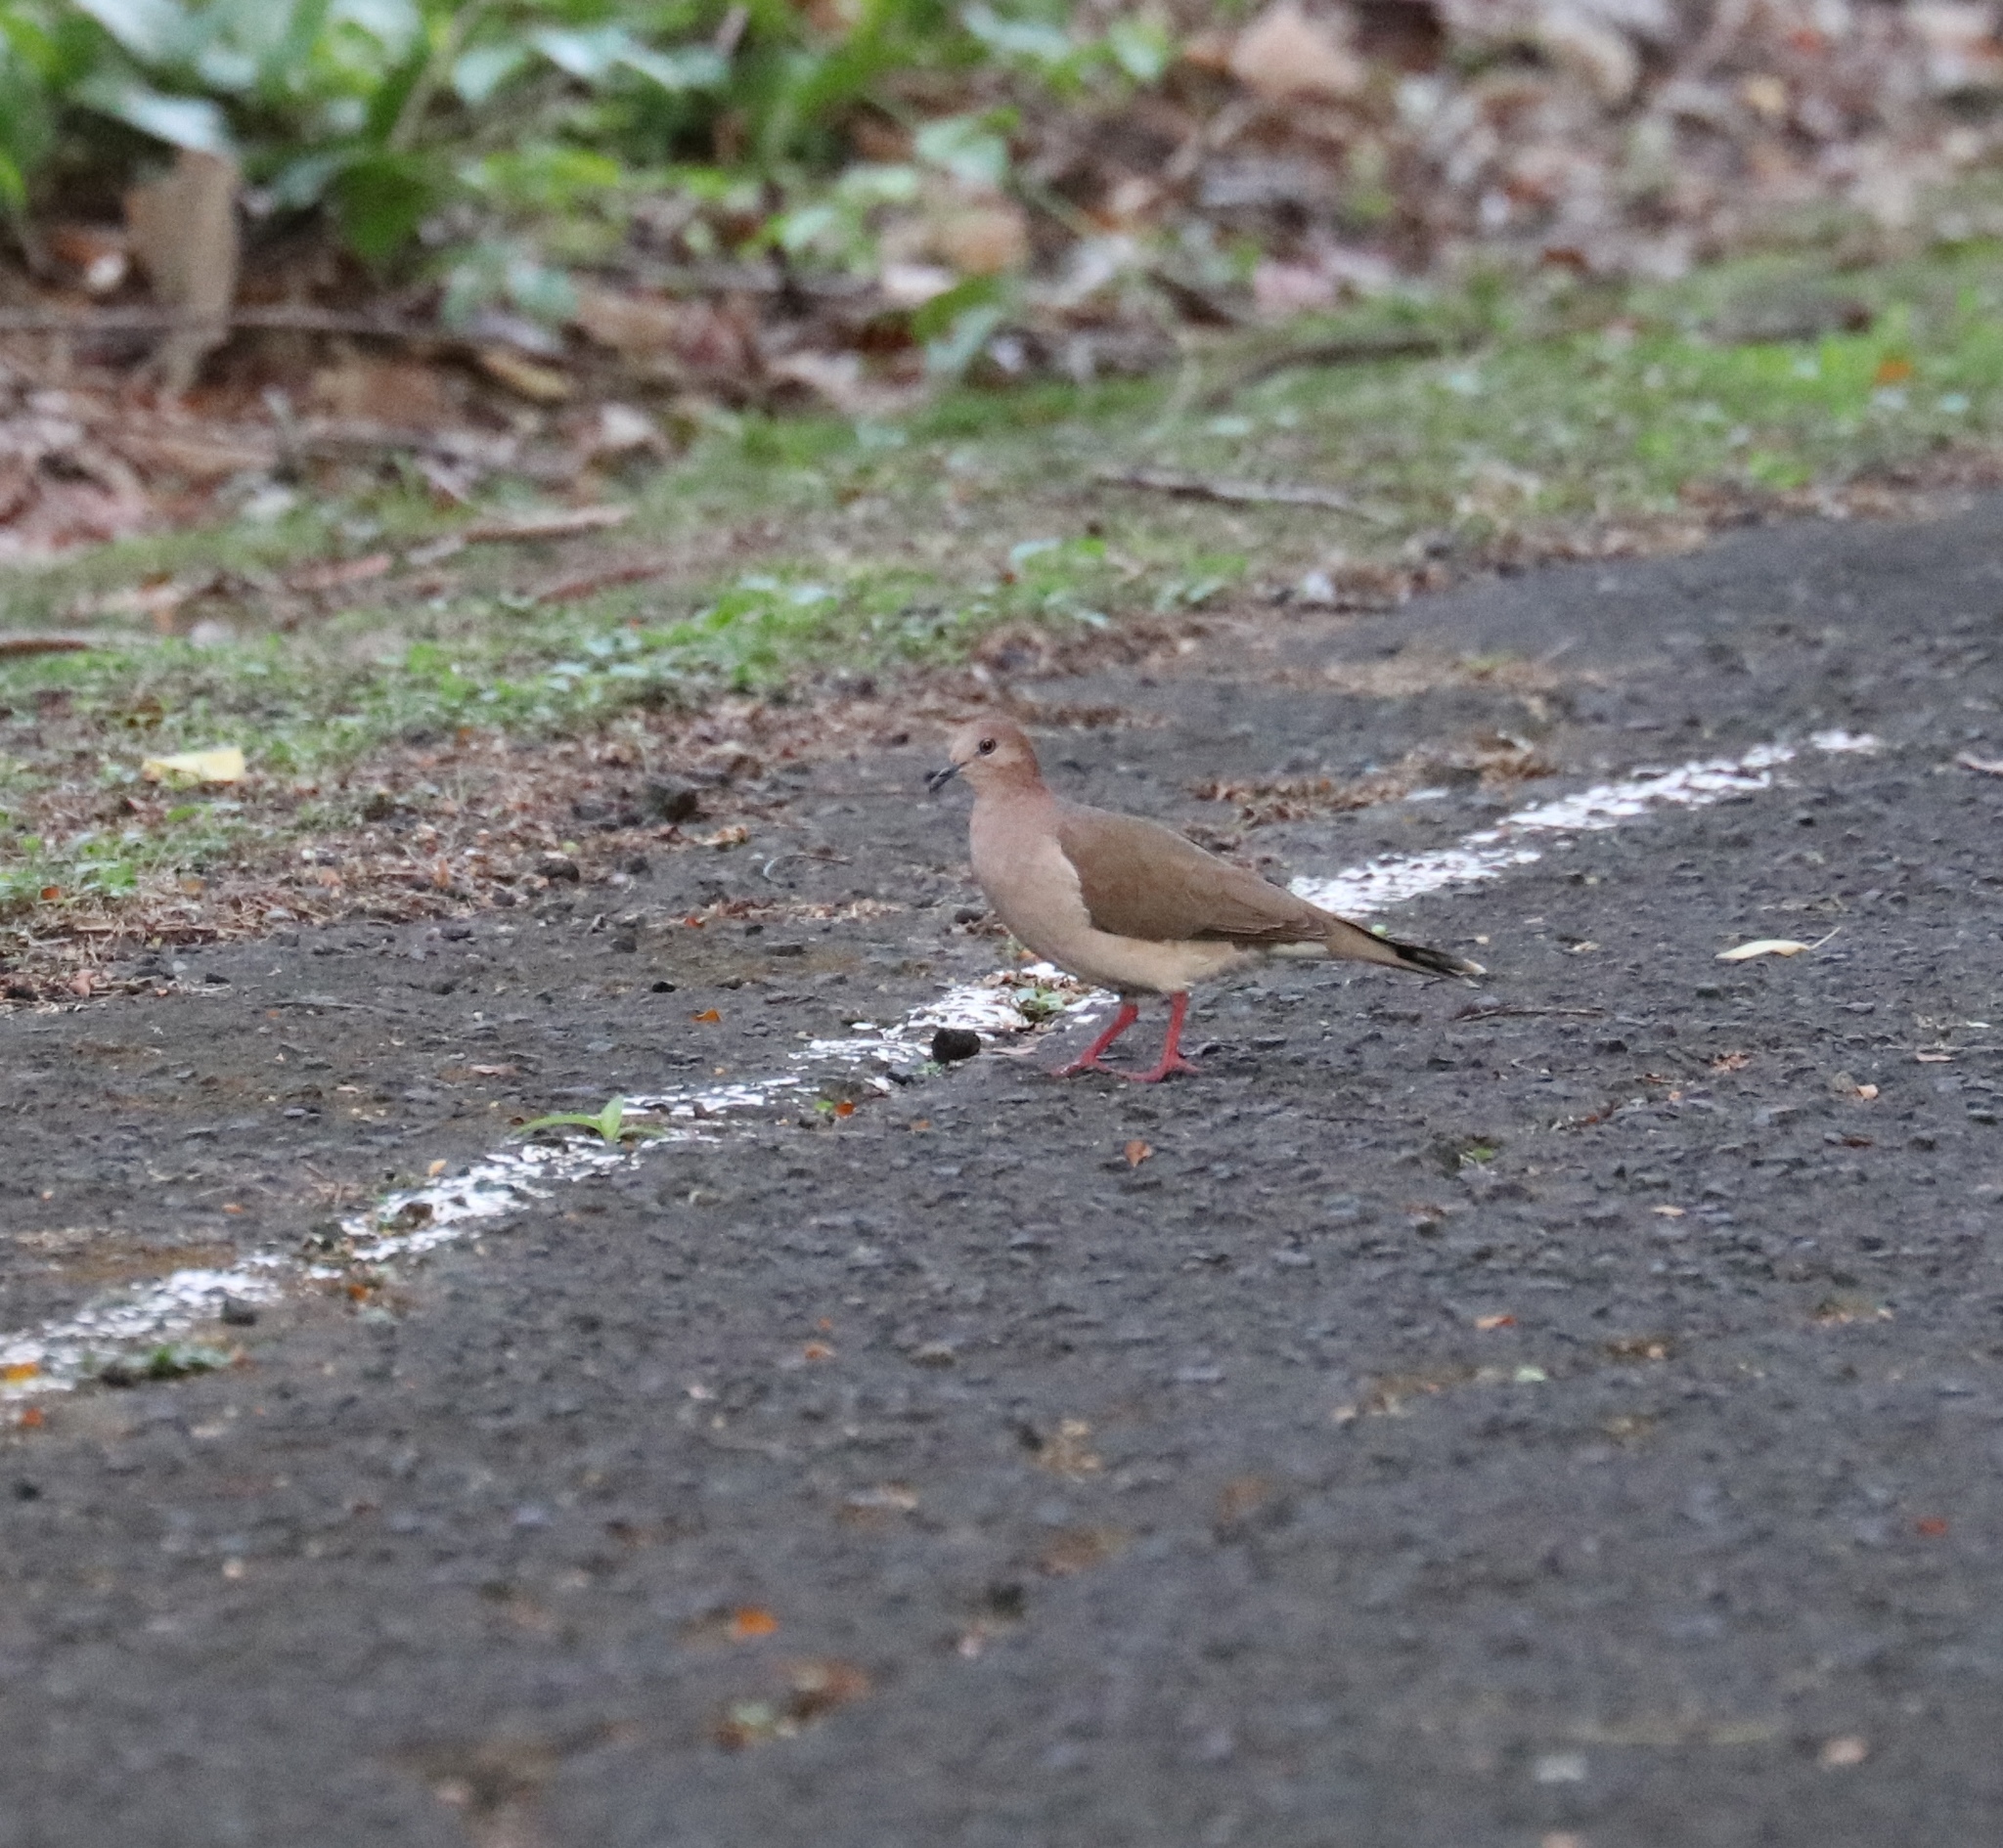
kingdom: Animalia
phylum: Chordata
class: Aves
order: Columbiformes
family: Columbidae
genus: Leptotila
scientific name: Leptotila verreauxi
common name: White-tipped dove
